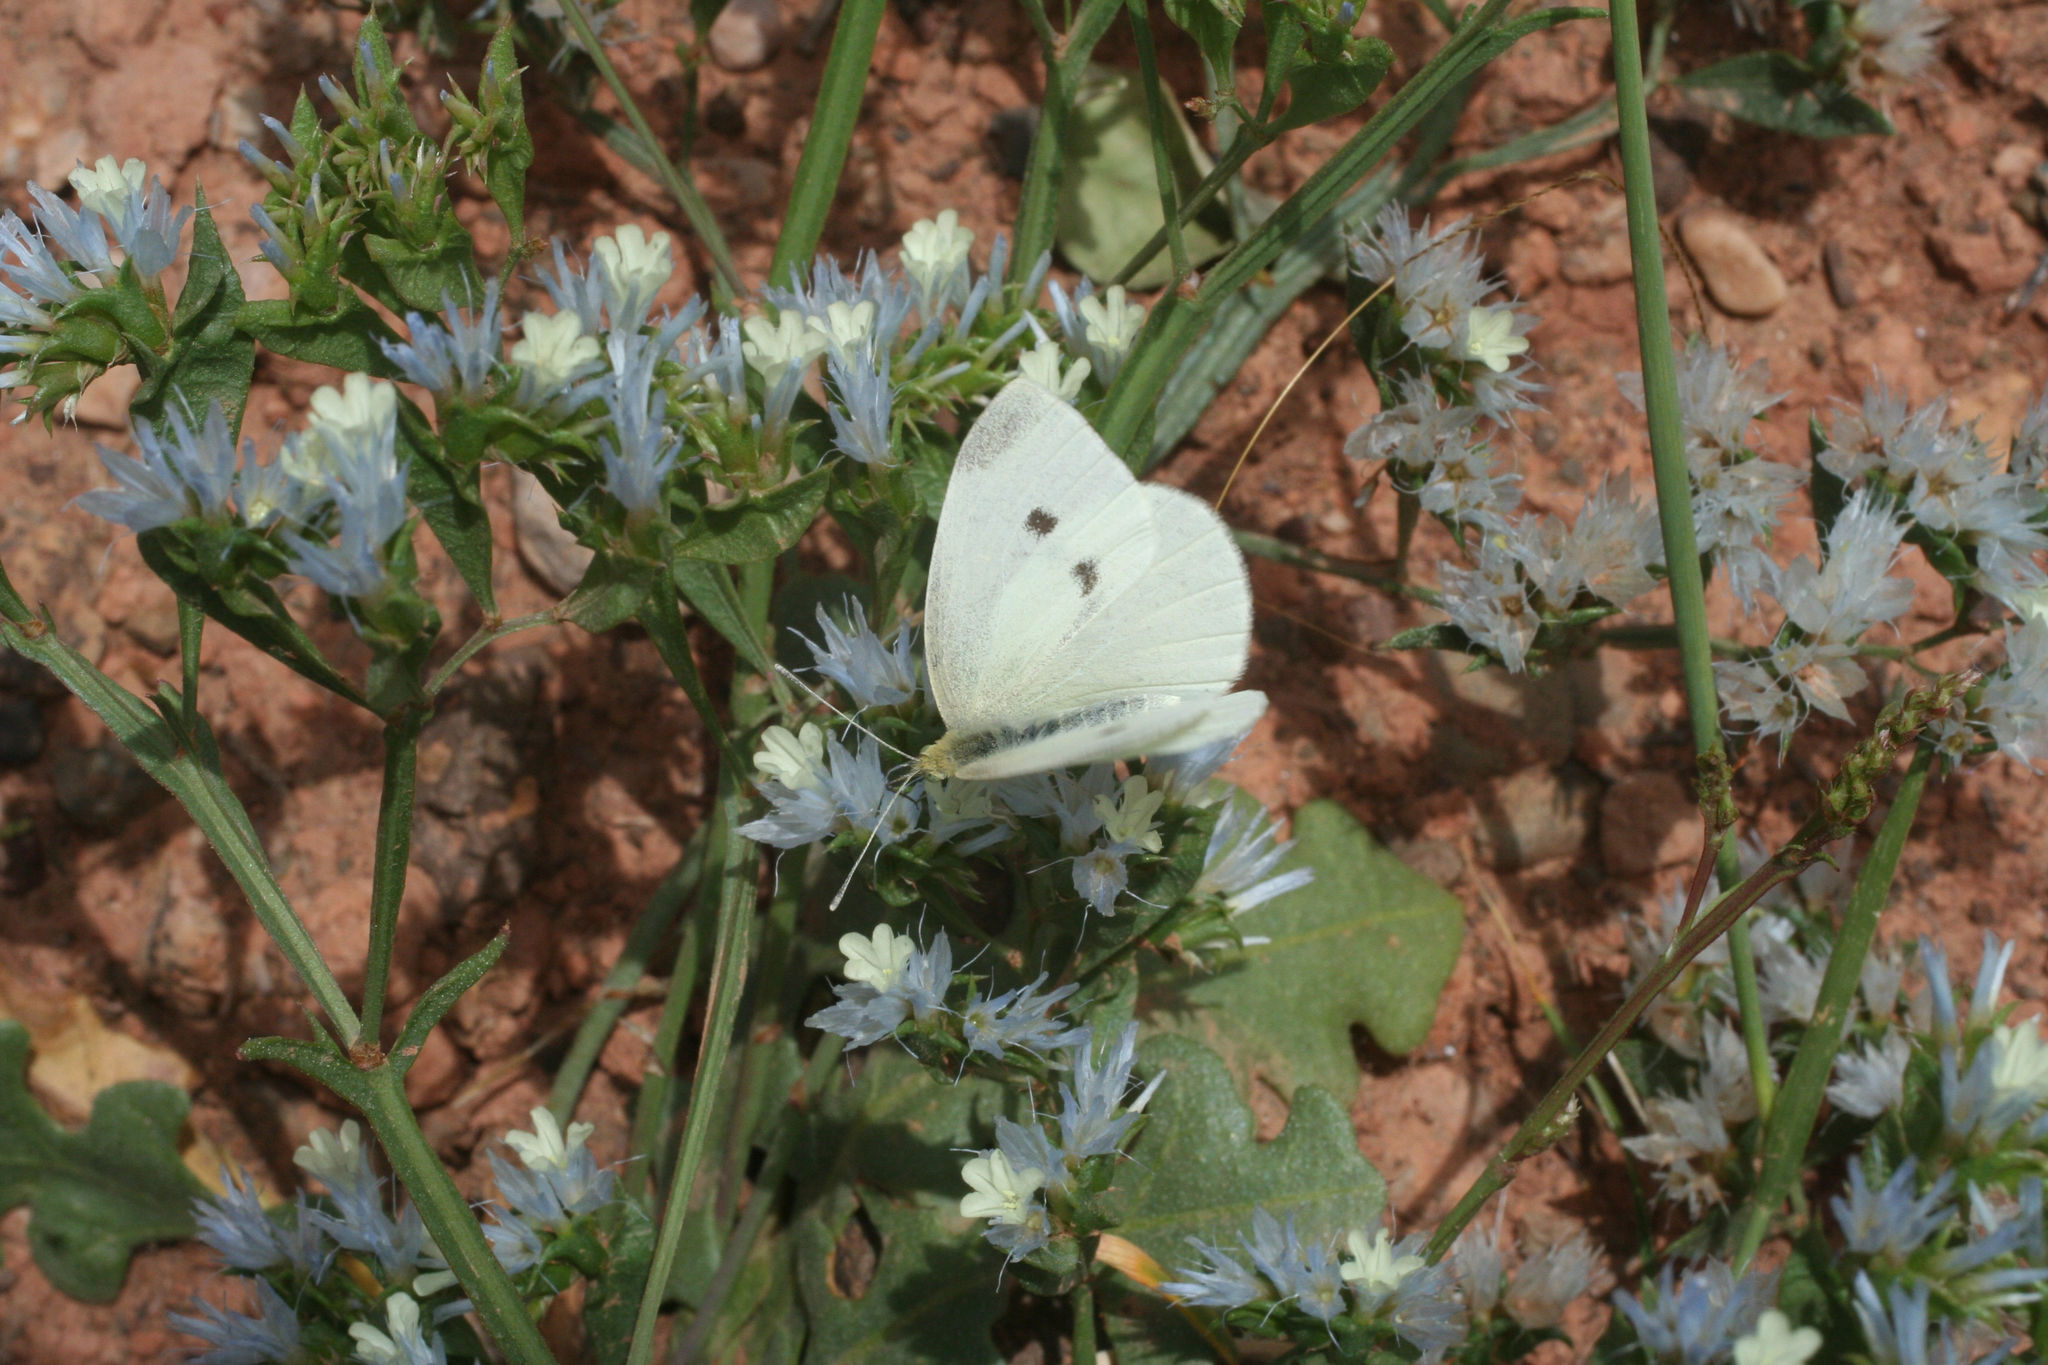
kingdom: Animalia
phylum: Arthropoda
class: Insecta
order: Lepidoptera
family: Pieridae
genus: Pieris
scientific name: Pieris rapae
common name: Small white
